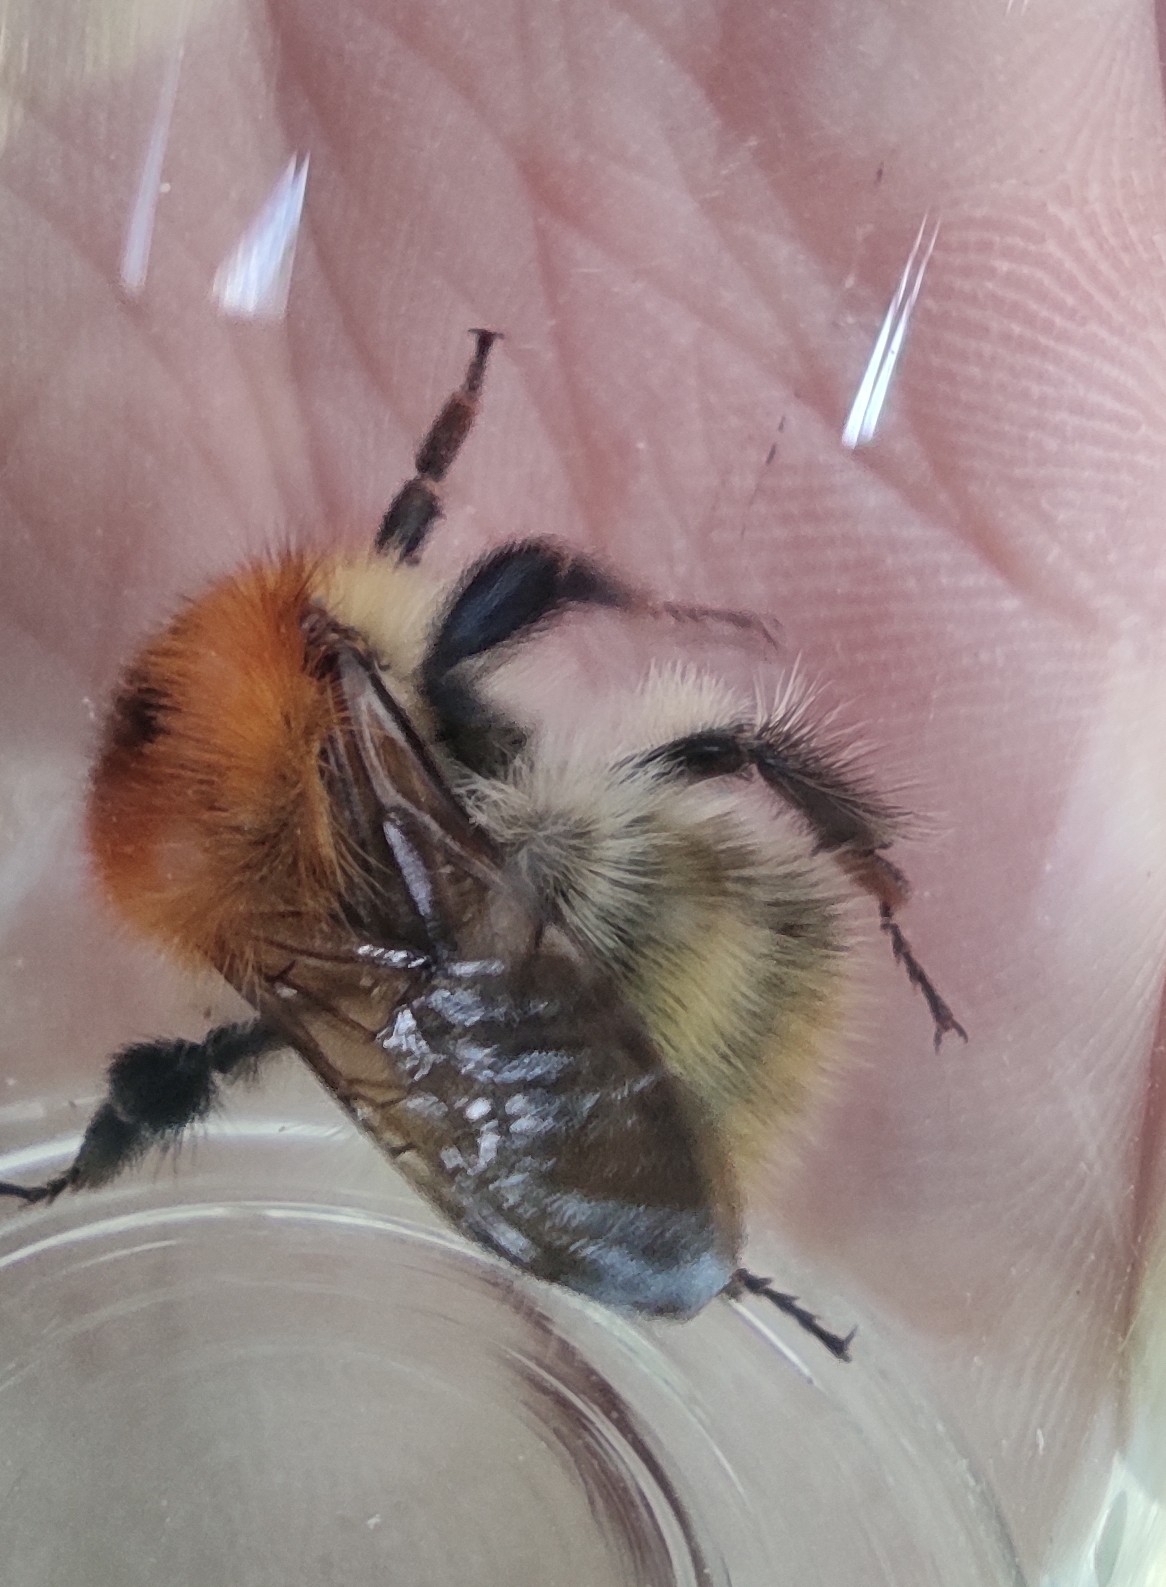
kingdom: Animalia
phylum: Arthropoda
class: Insecta
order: Hymenoptera
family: Apidae
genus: Bombus
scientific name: Bombus pascuorum
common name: Common carder bee
